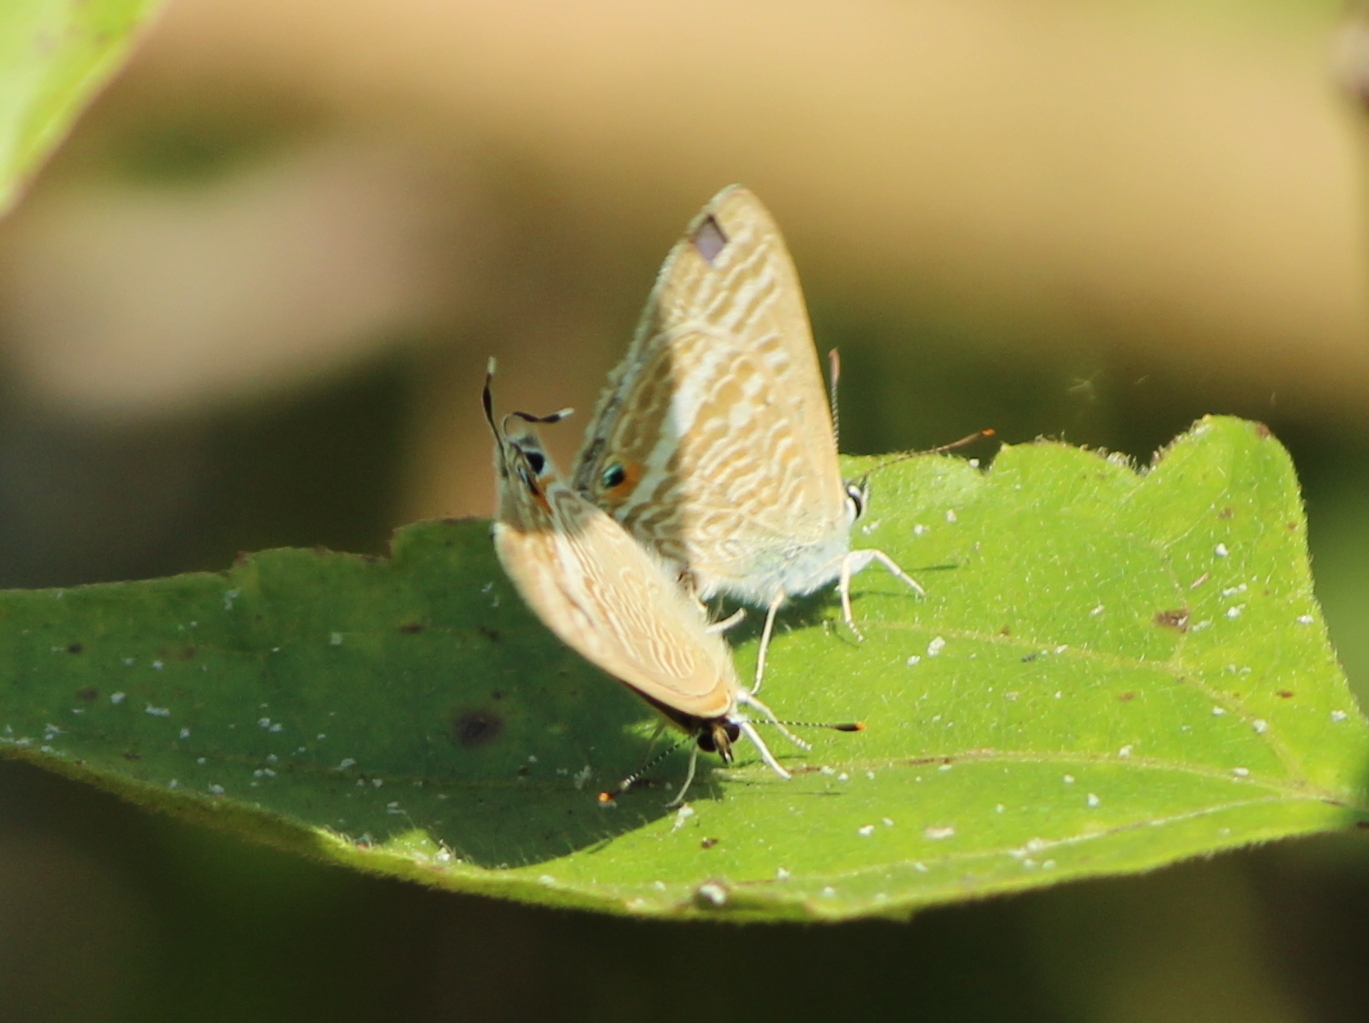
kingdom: Animalia
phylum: Arthropoda
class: Insecta
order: Lepidoptera
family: Lycaenidae
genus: Lampides
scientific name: Lampides boeticus
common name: Long-tailed blue
